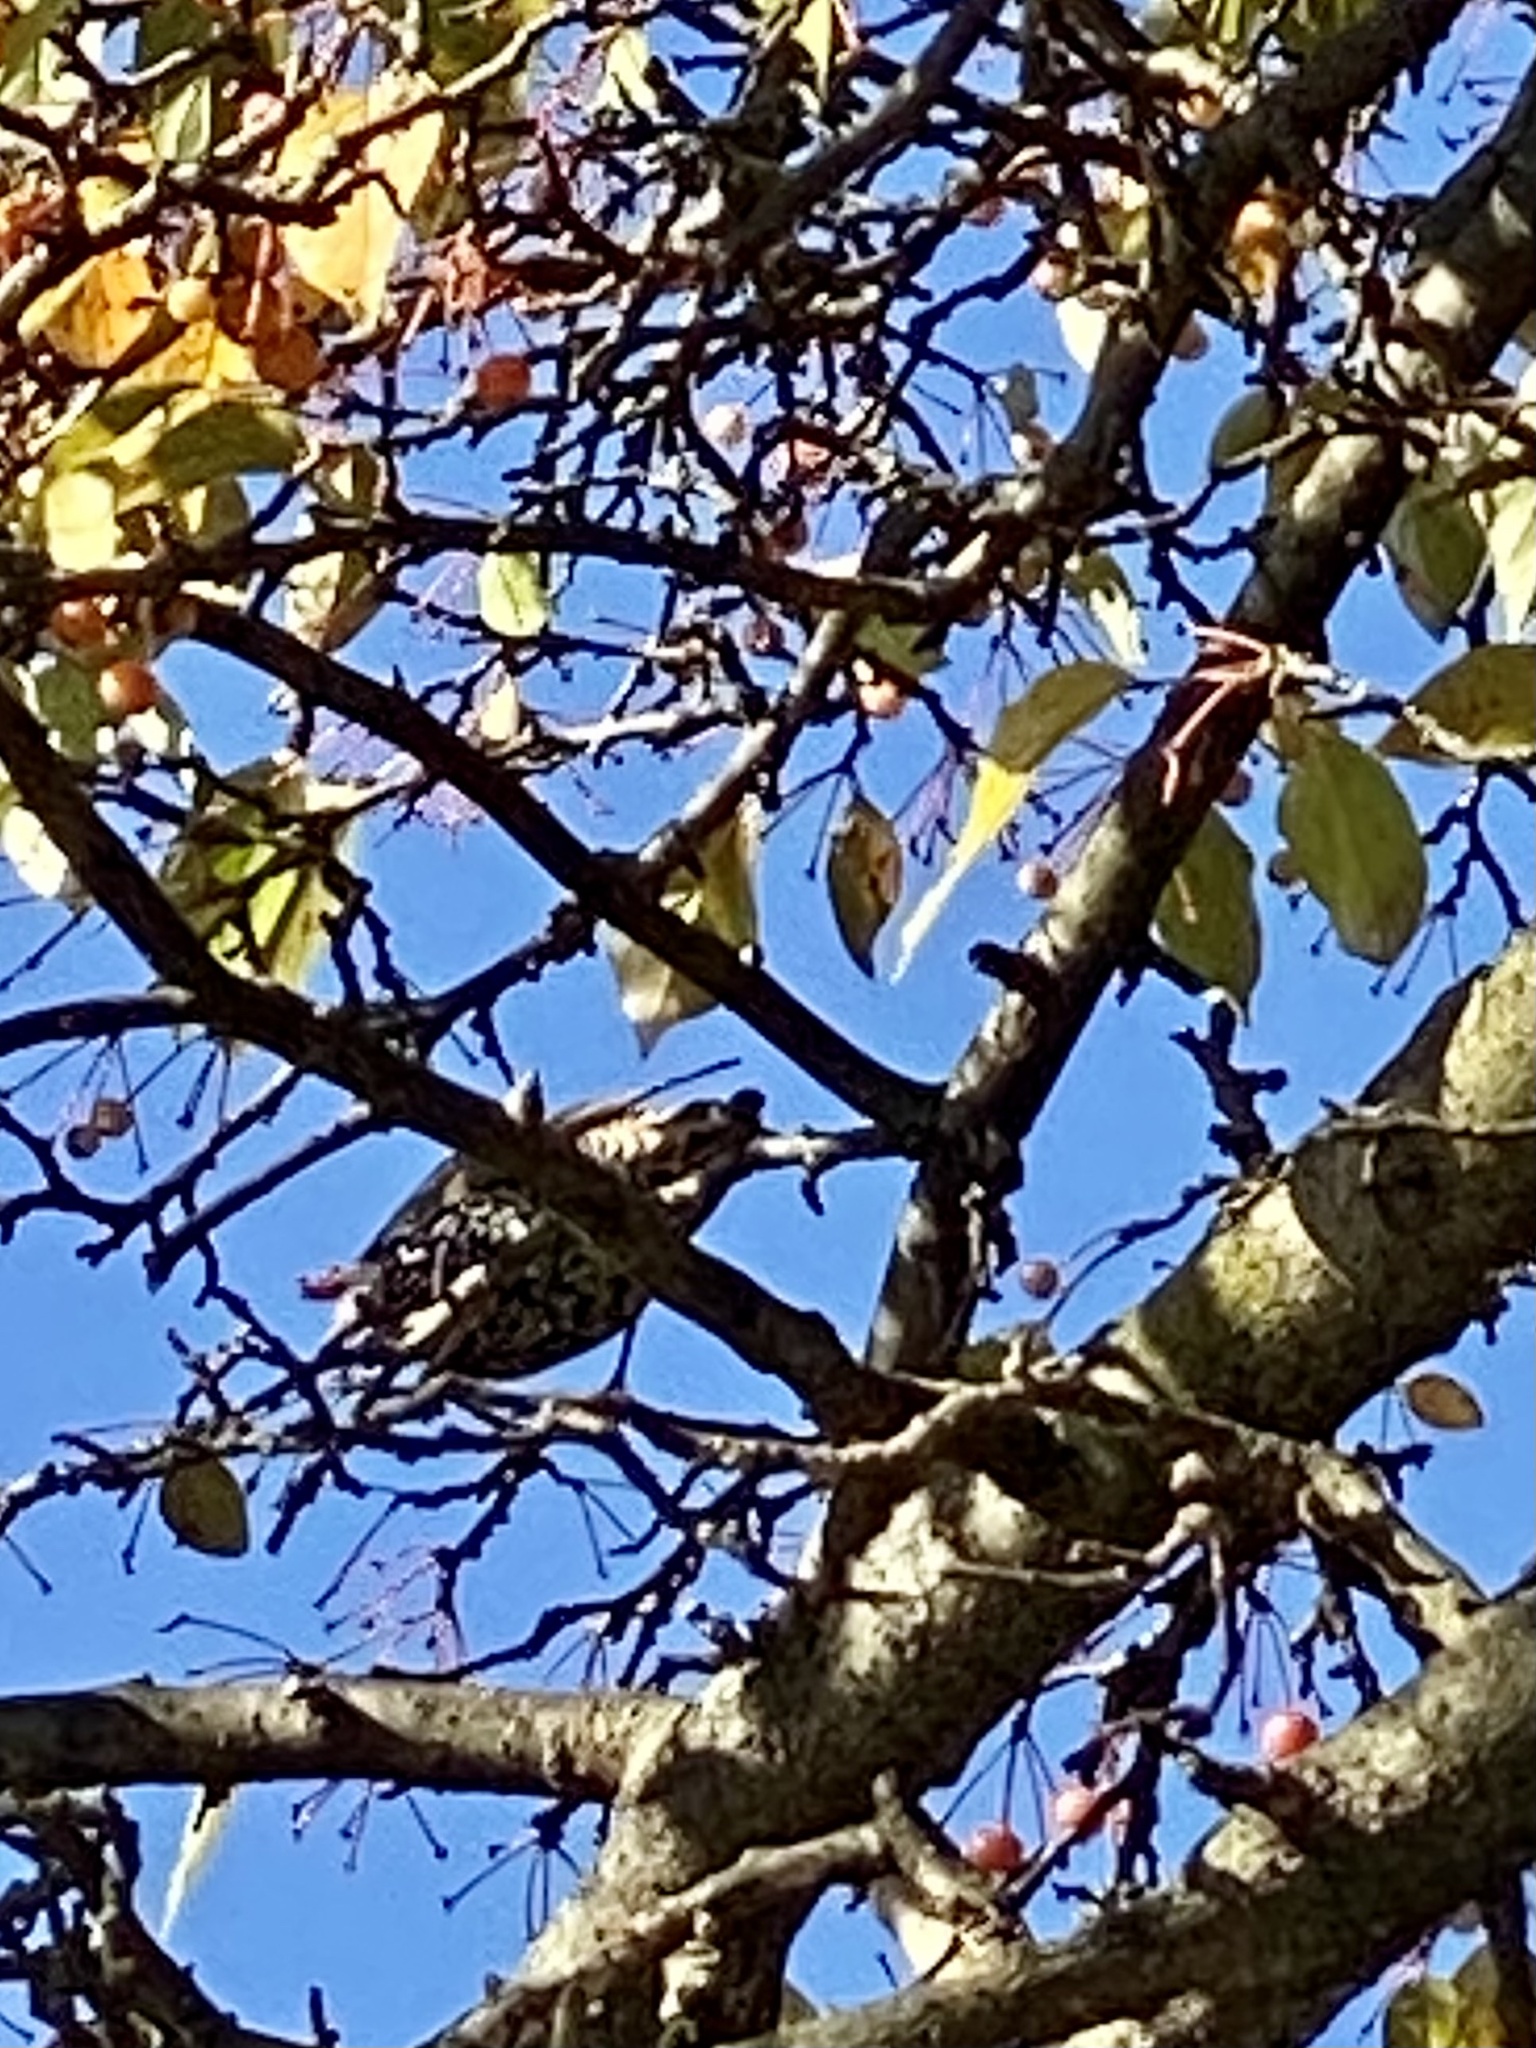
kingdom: Animalia
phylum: Chordata
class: Aves
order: Passeriformes
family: Sturnidae
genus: Sturnus
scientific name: Sturnus vulgaris
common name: Common starling
